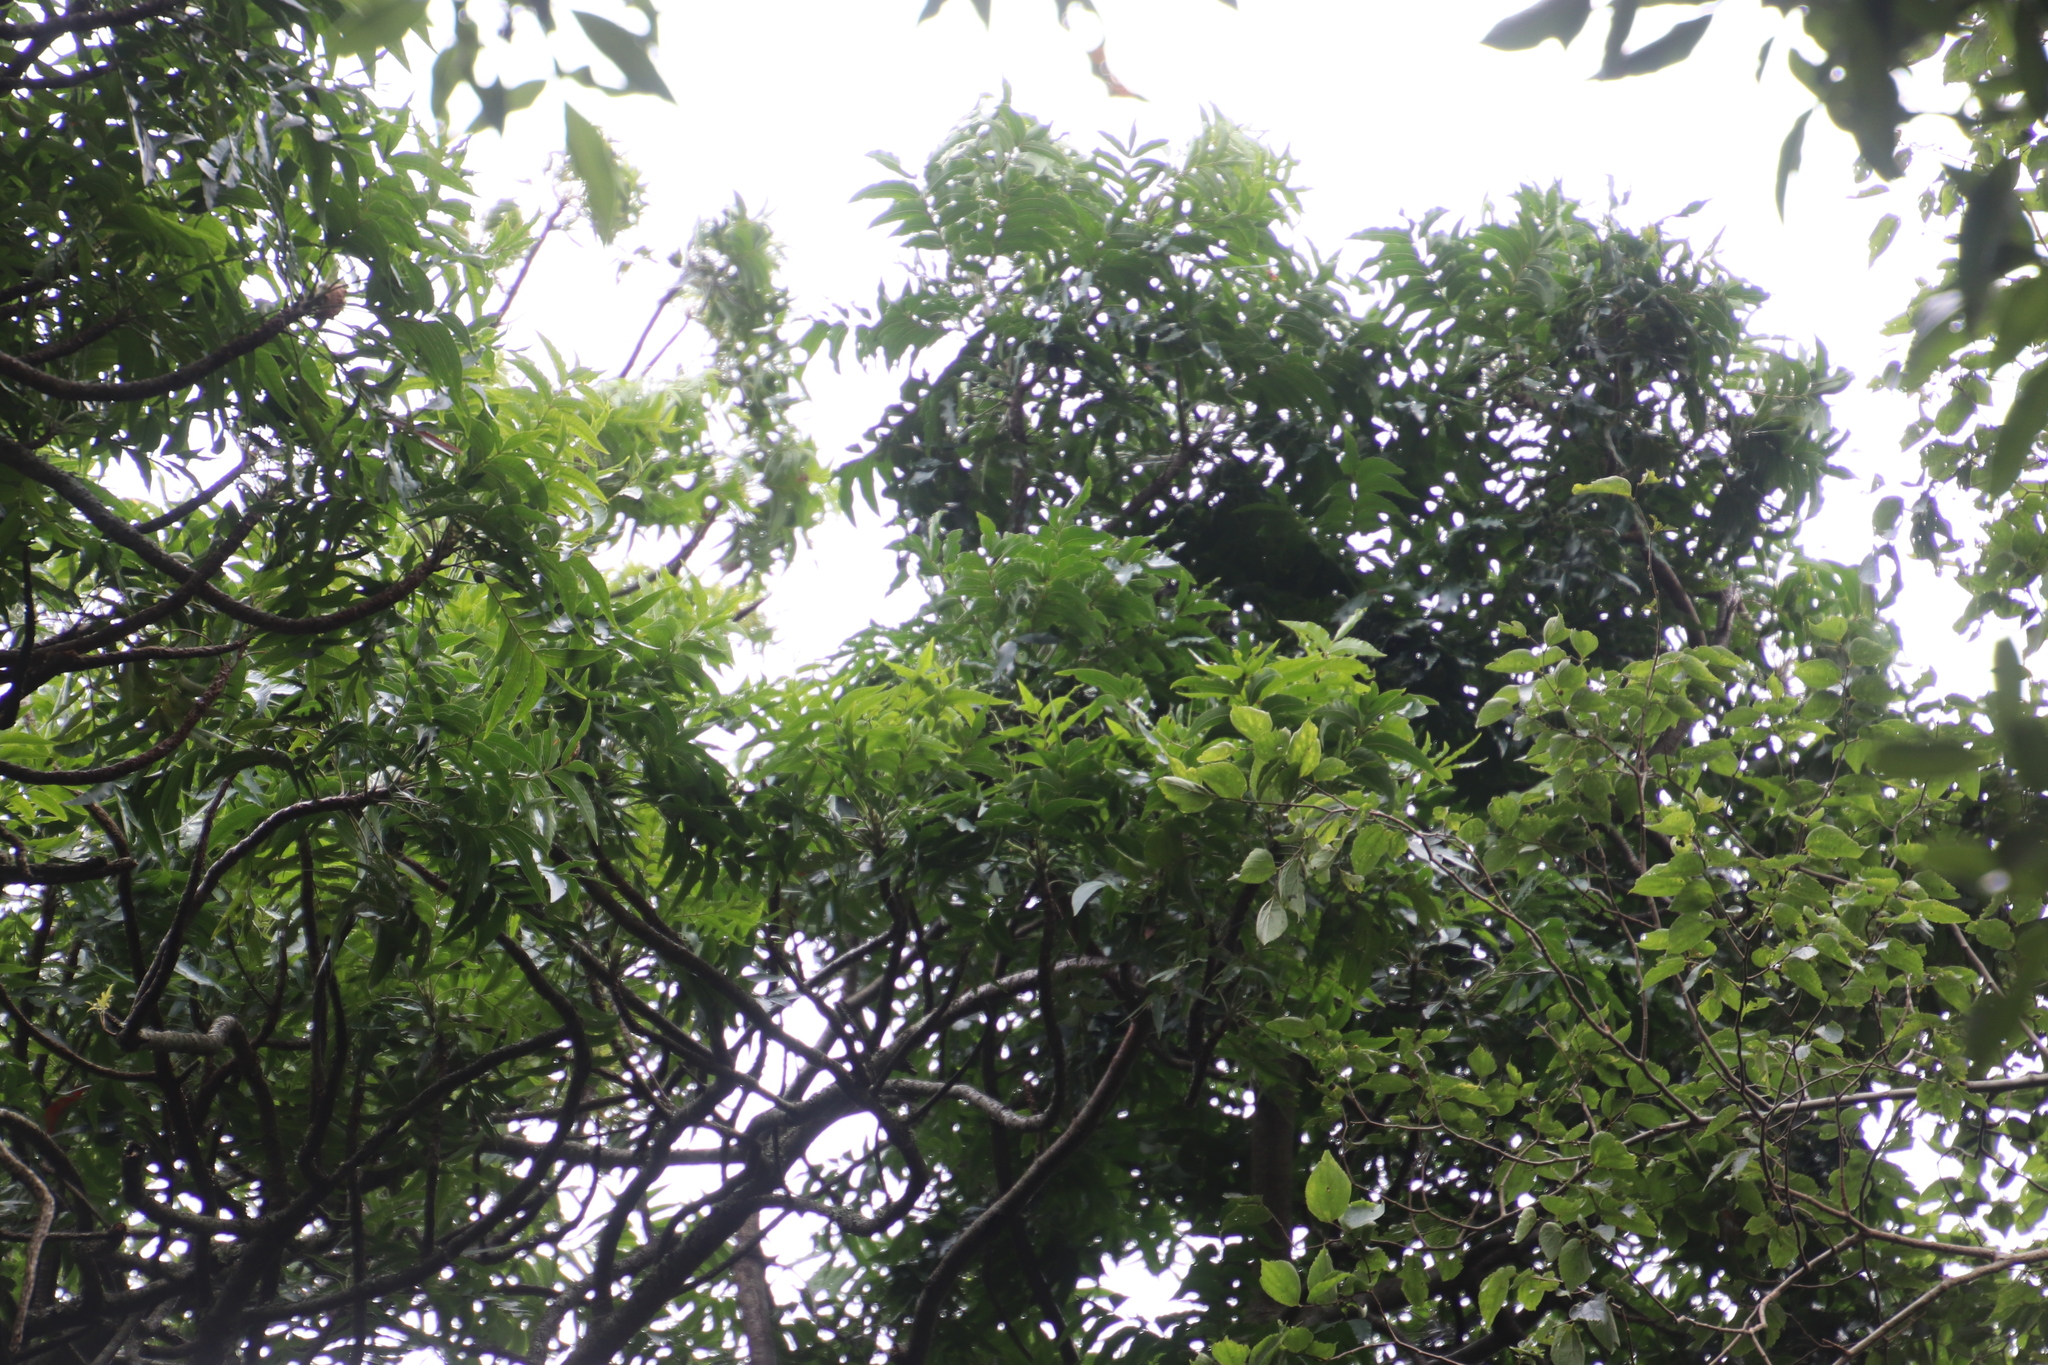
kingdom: Plantae
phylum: Tracheophyta
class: Magnoliopsida
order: Sapindales
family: Anacardiaceae
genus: Harpephyllum
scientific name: Harpephyllum caffrum
